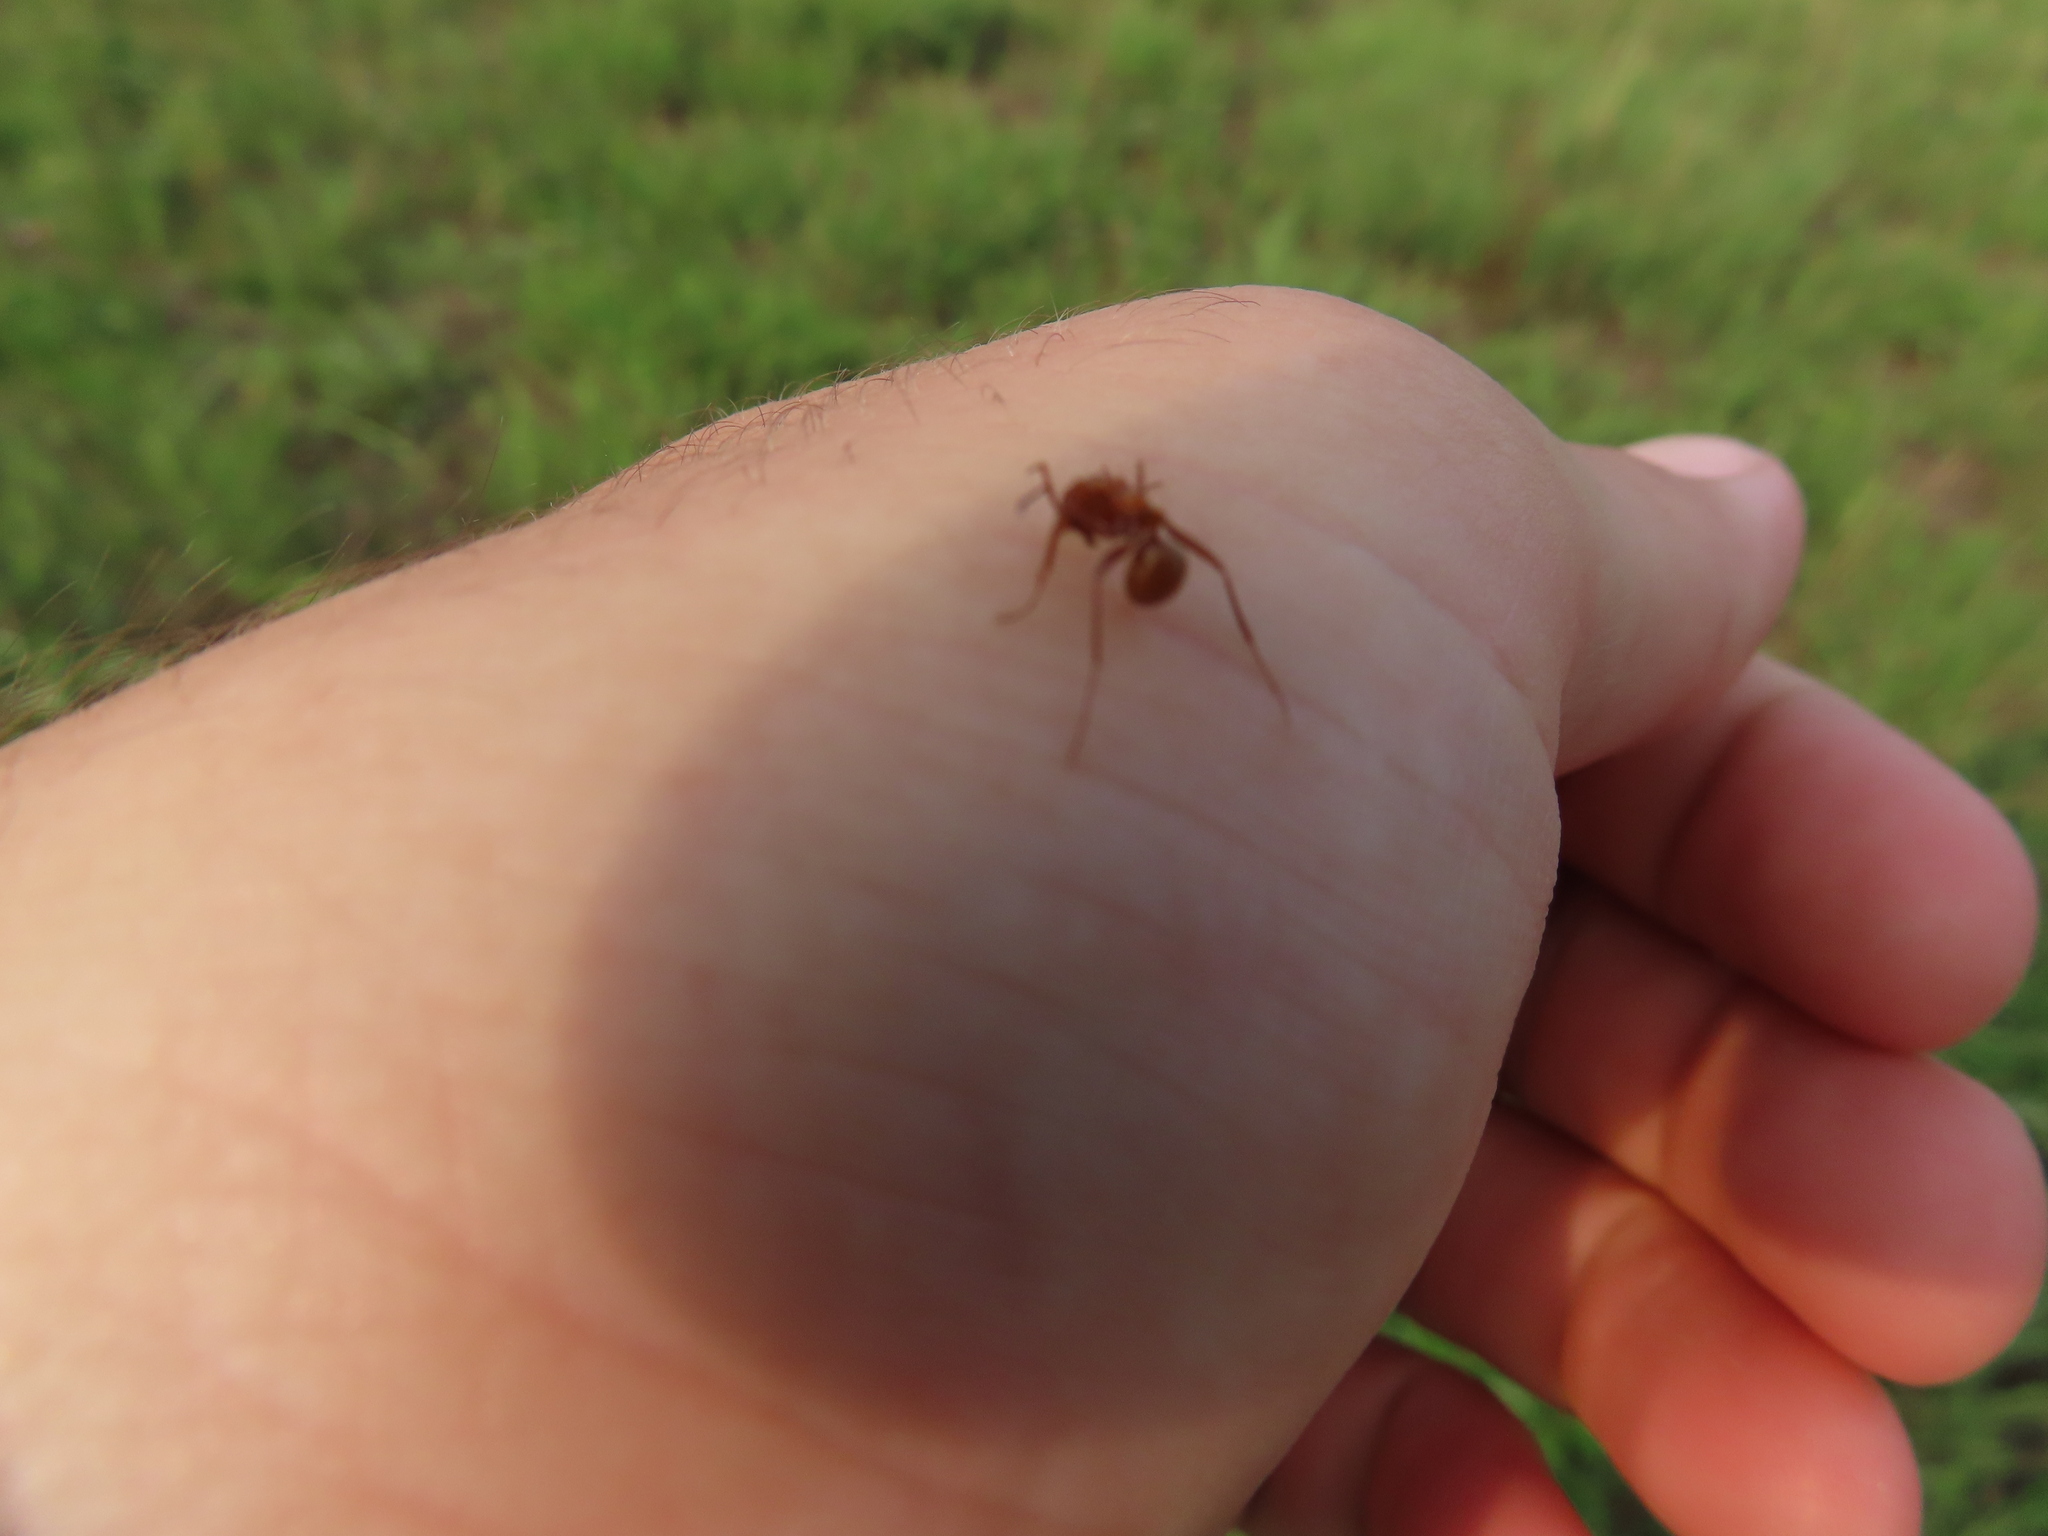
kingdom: Animalia
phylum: Arthropoda
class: Insecta
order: Hymenoptera
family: Formicidae
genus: Formica
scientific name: Formica dolosa
